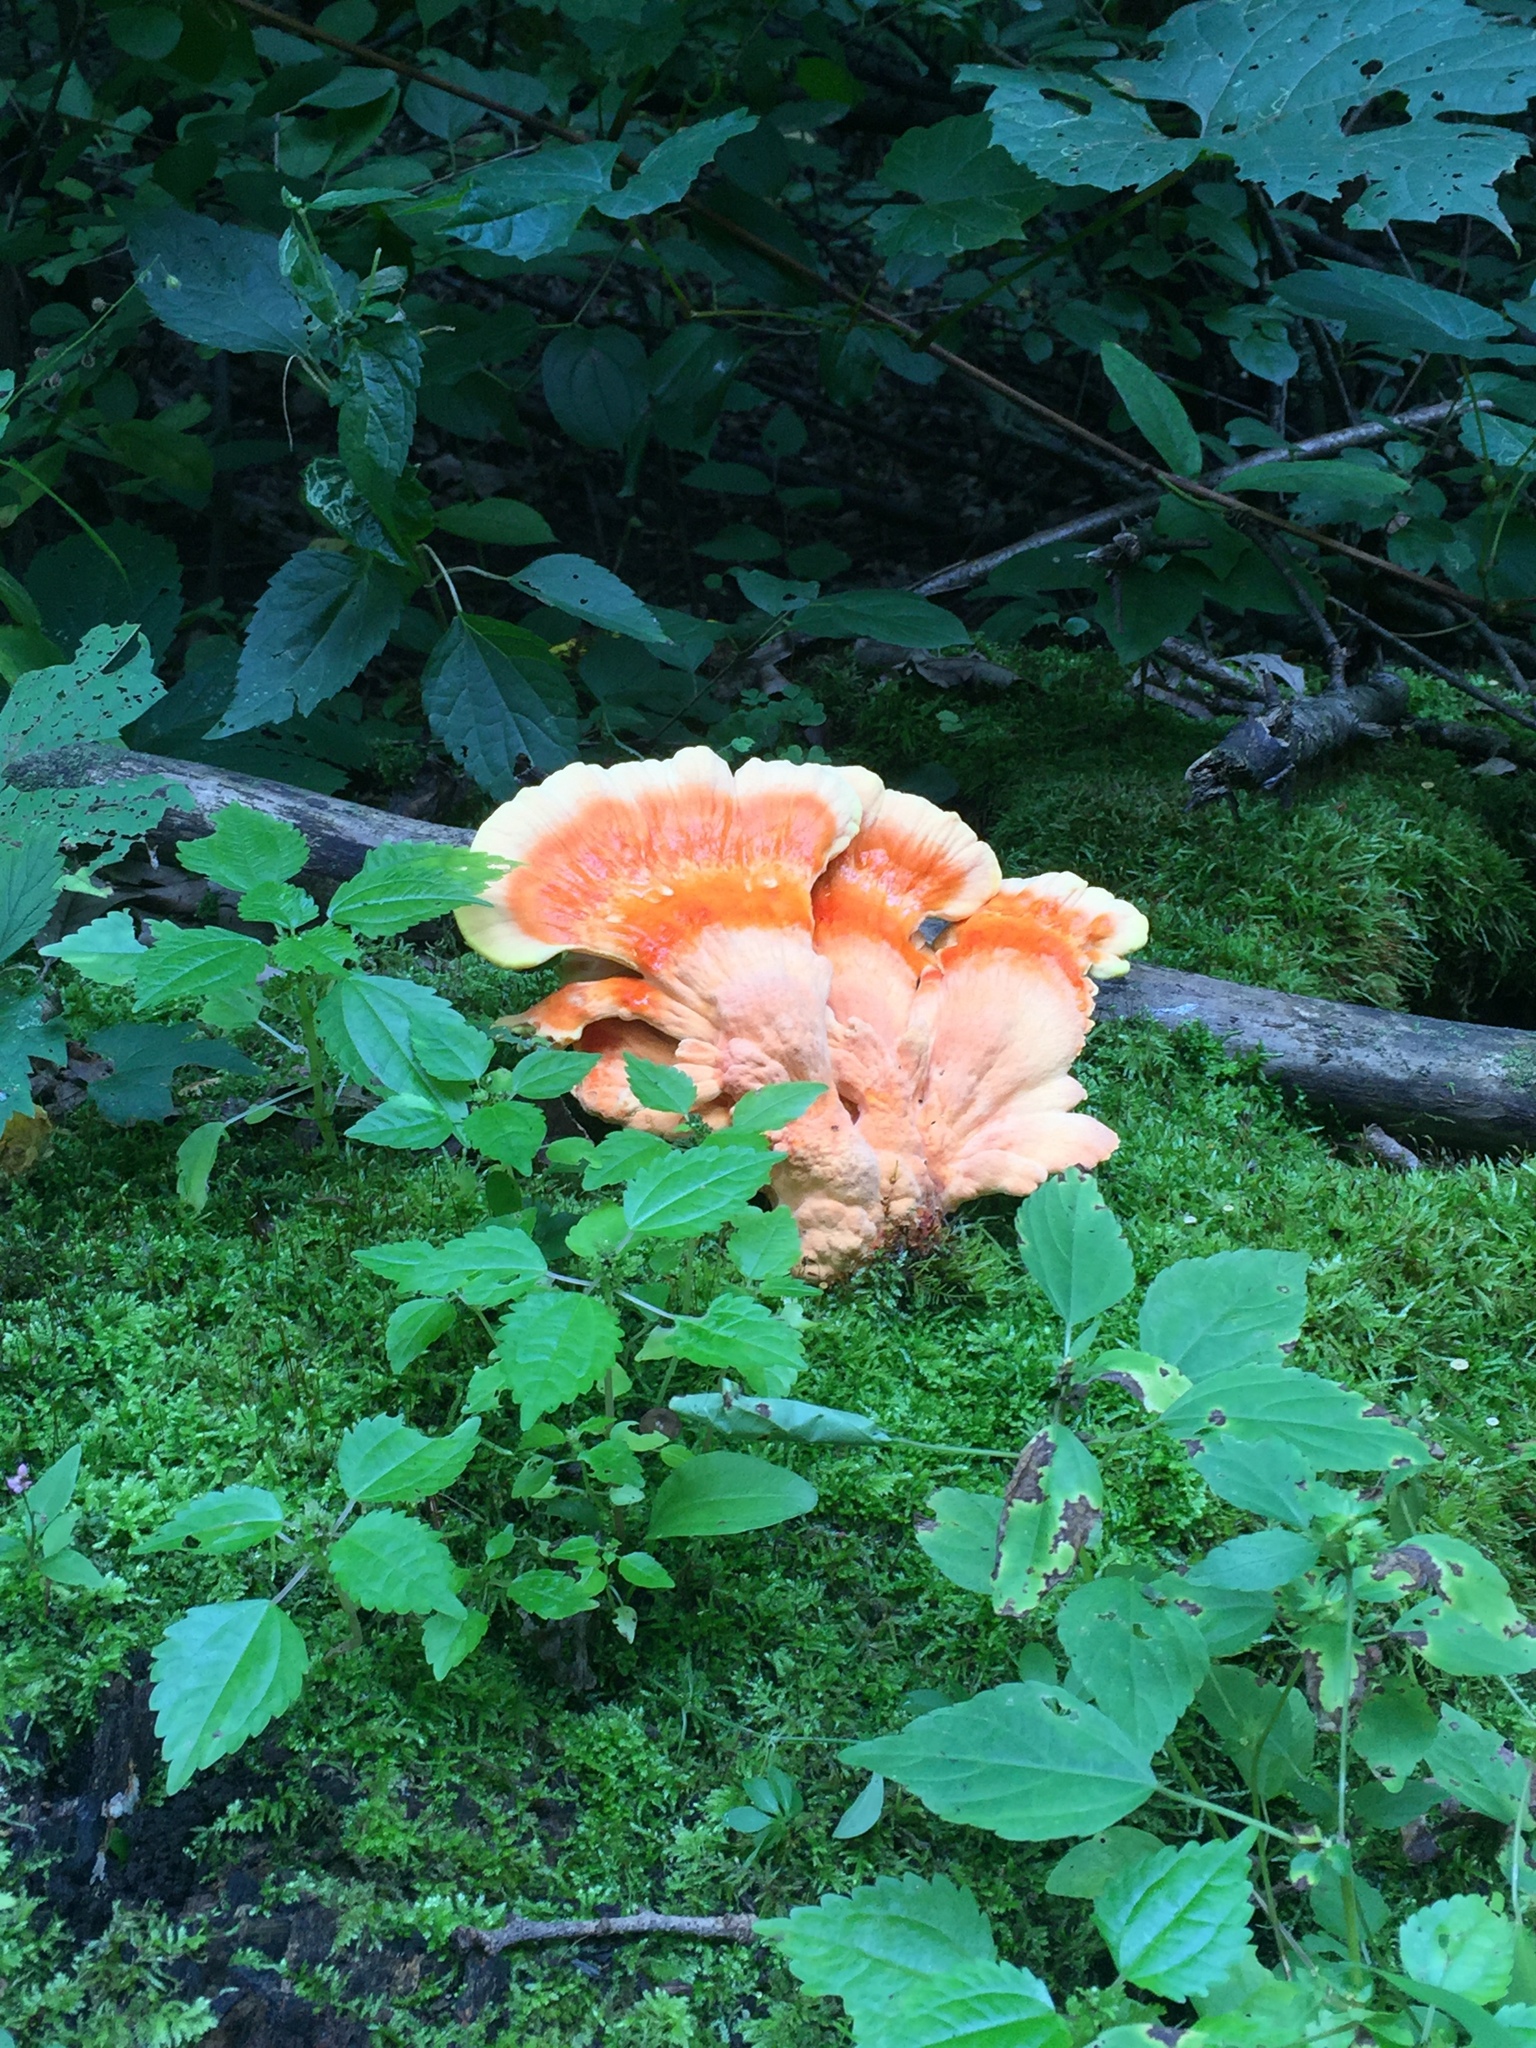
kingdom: Fungi
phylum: Basidiomycota
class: Agaricomycetes
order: Polyporales
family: Laetiporaceae
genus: Laetiporus
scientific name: Laetiporus sulphureus
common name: Chicken of the woods
